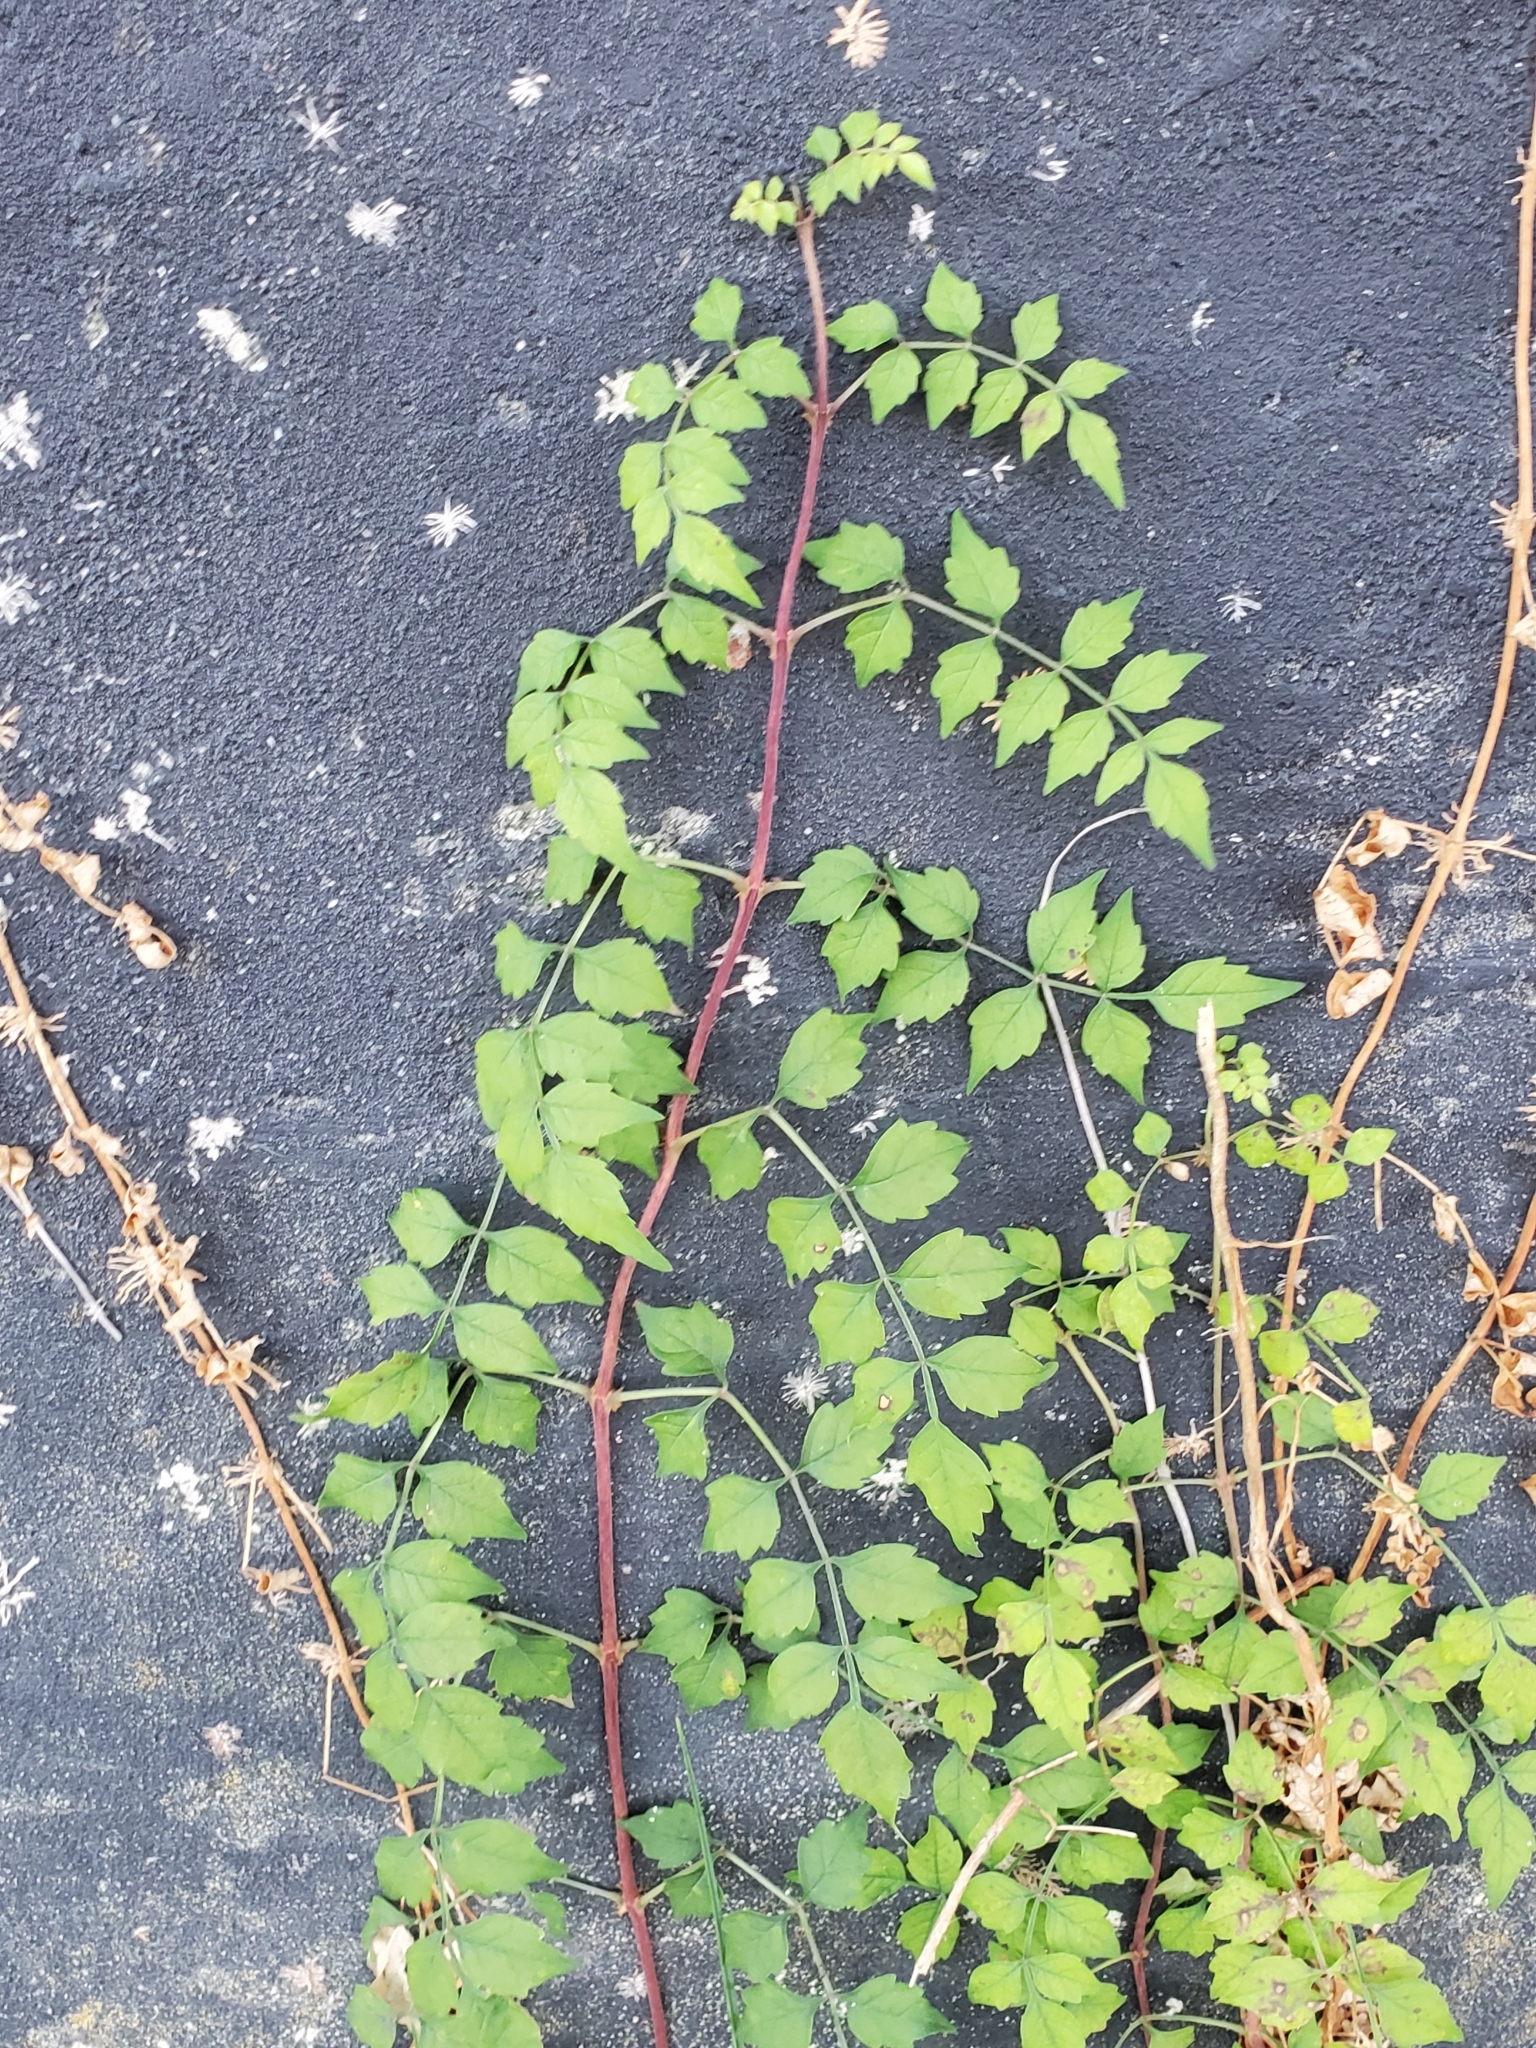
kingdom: Plantae
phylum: Tracheophyta
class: Magnoliopsida
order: Lamiales
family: Bignoniaceae
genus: Campsis
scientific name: Campsis radicans
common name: Trumpet-creeper
